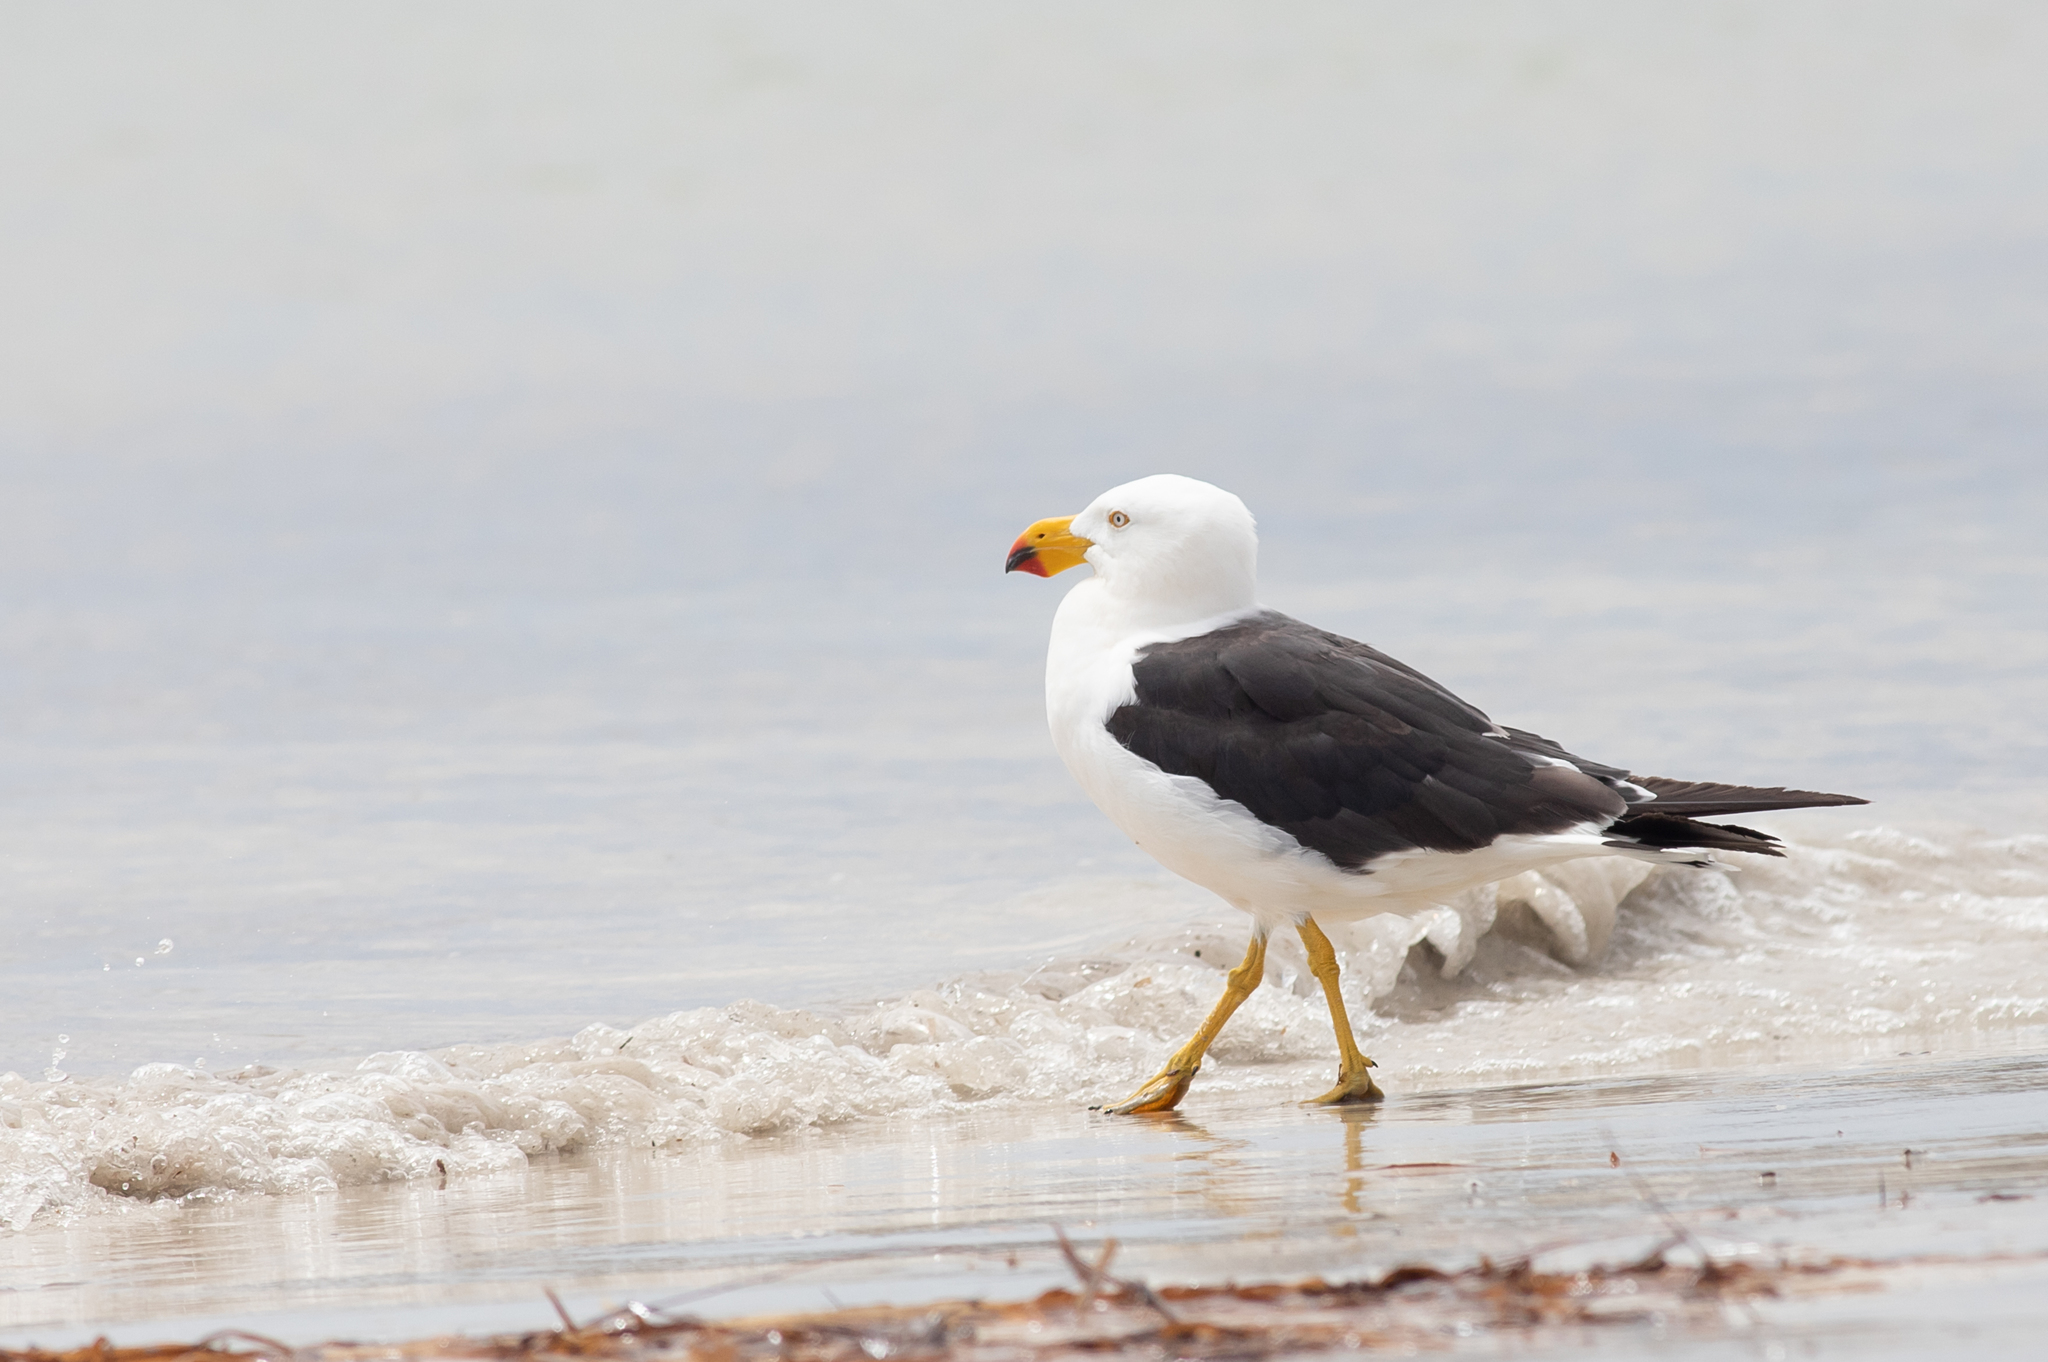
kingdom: Animalia
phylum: Chordata
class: Aves
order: Charadriiformes
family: Laridae
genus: Larus
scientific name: Larus pacificus
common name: Pacific gull
